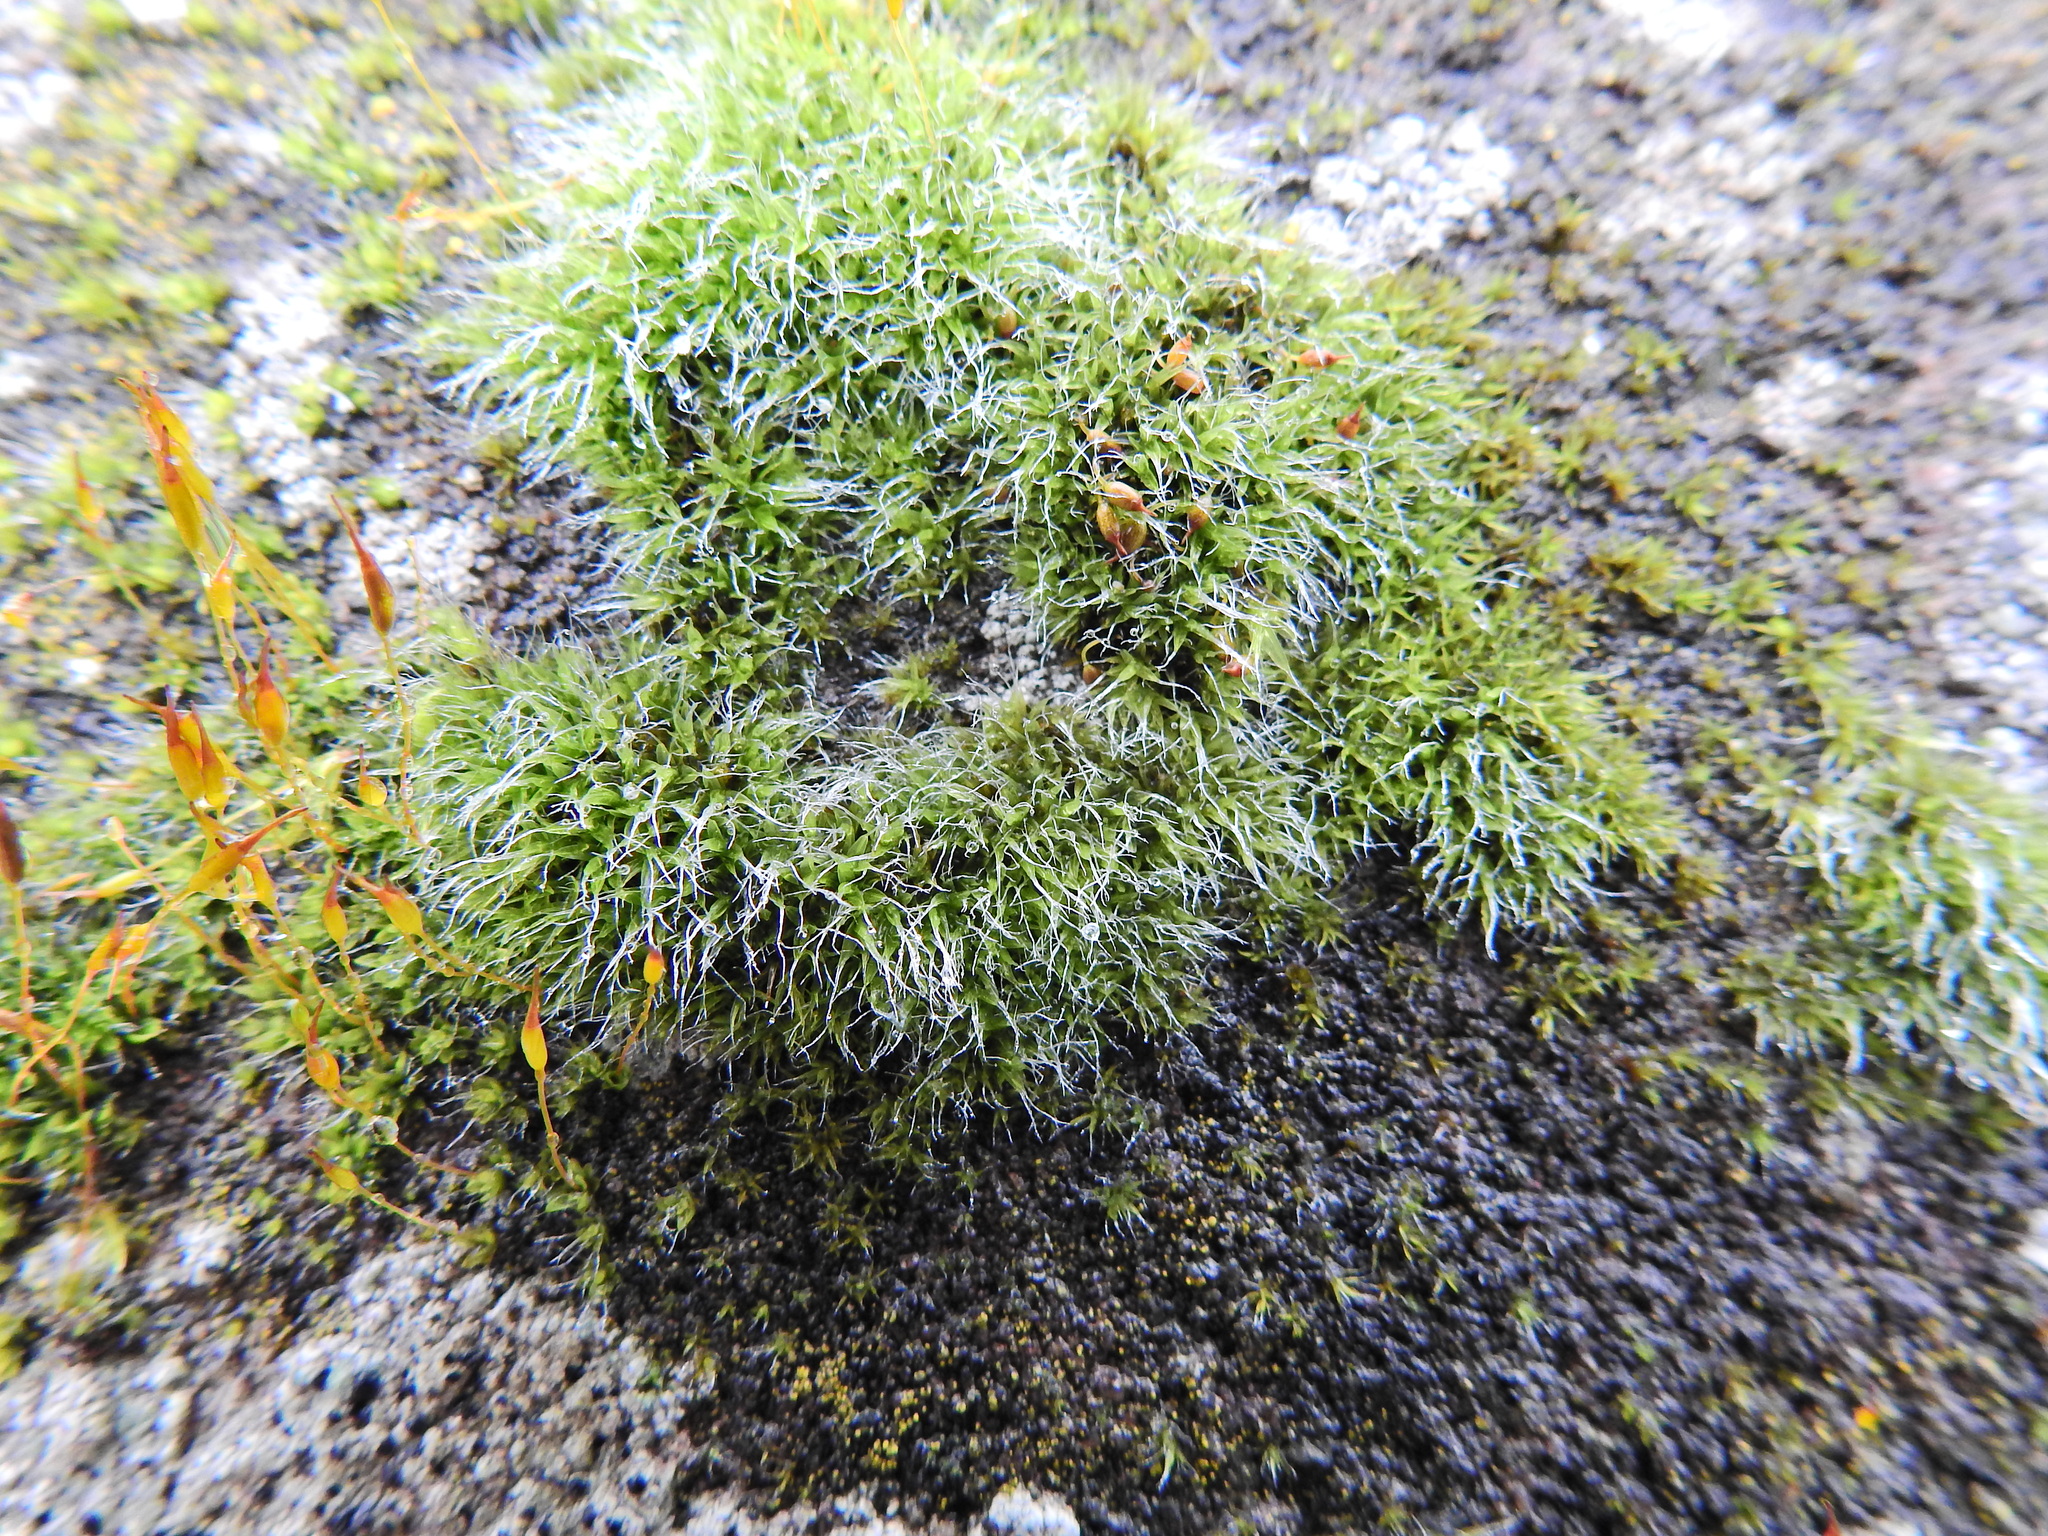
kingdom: Plantae
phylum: Bryophyta
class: Bryopsida
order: Grimmiales
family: Grimmiaceae
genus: Grimmia
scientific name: Grimmia pulvinata
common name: Grey-cushioned grimmia
